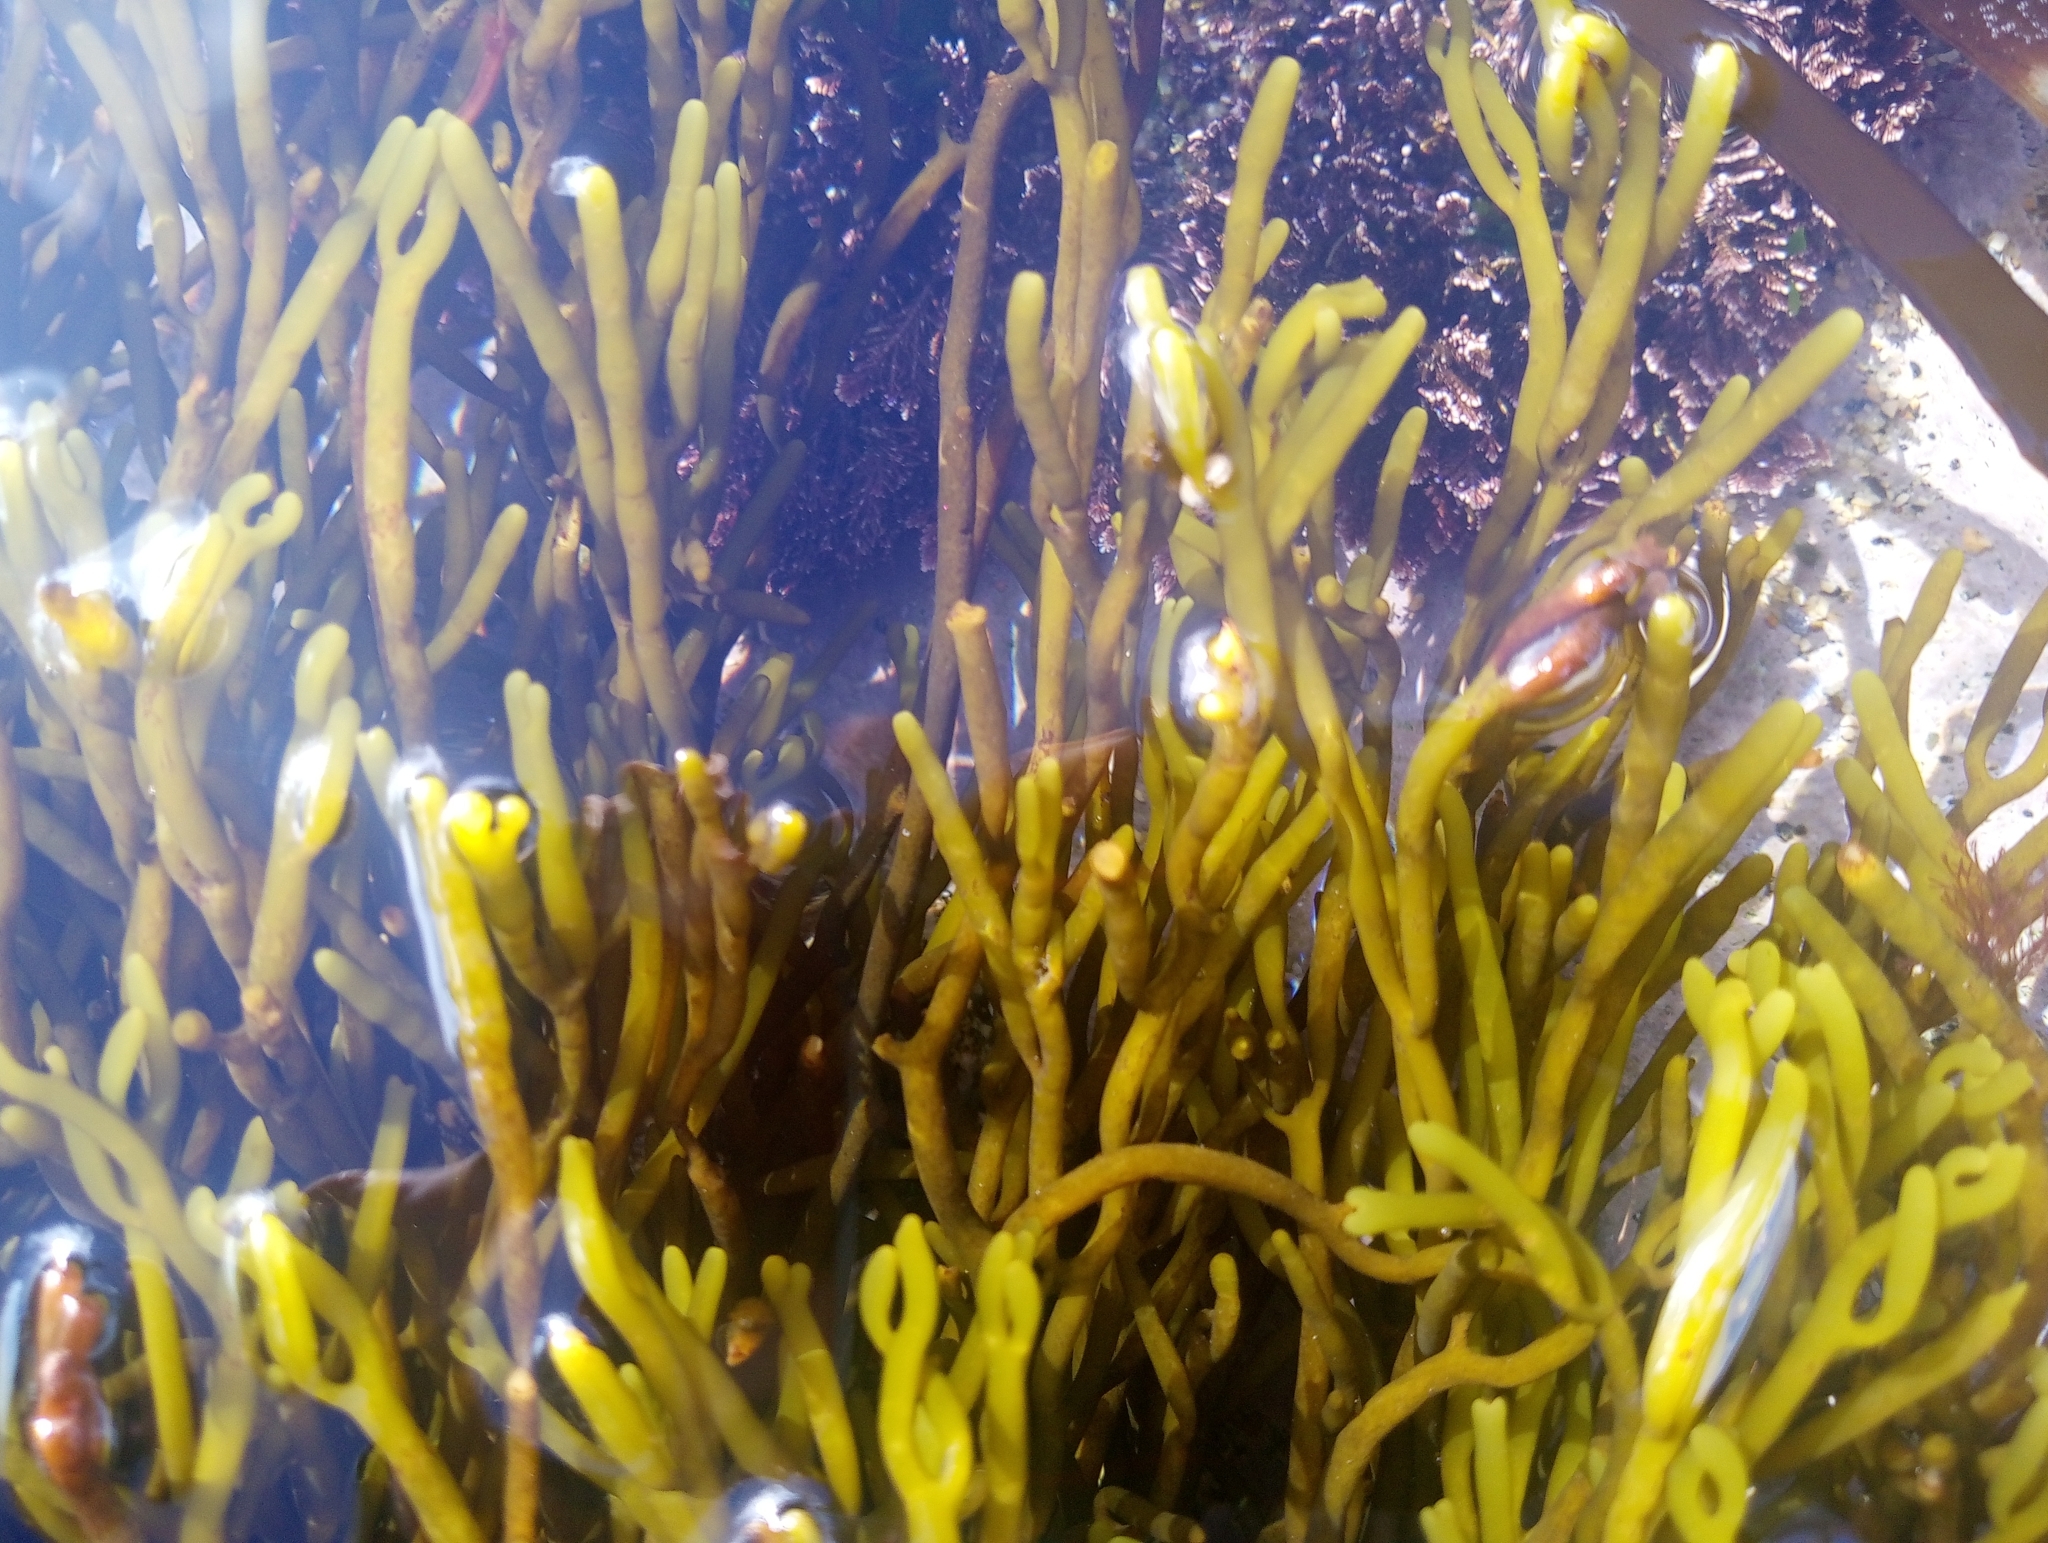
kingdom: Chromista
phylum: Ochrophyta
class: Phaeophyceae
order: Fucales
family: Sargassaceae
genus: Bifurcaria
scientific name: Bifurcaria bifurcata
